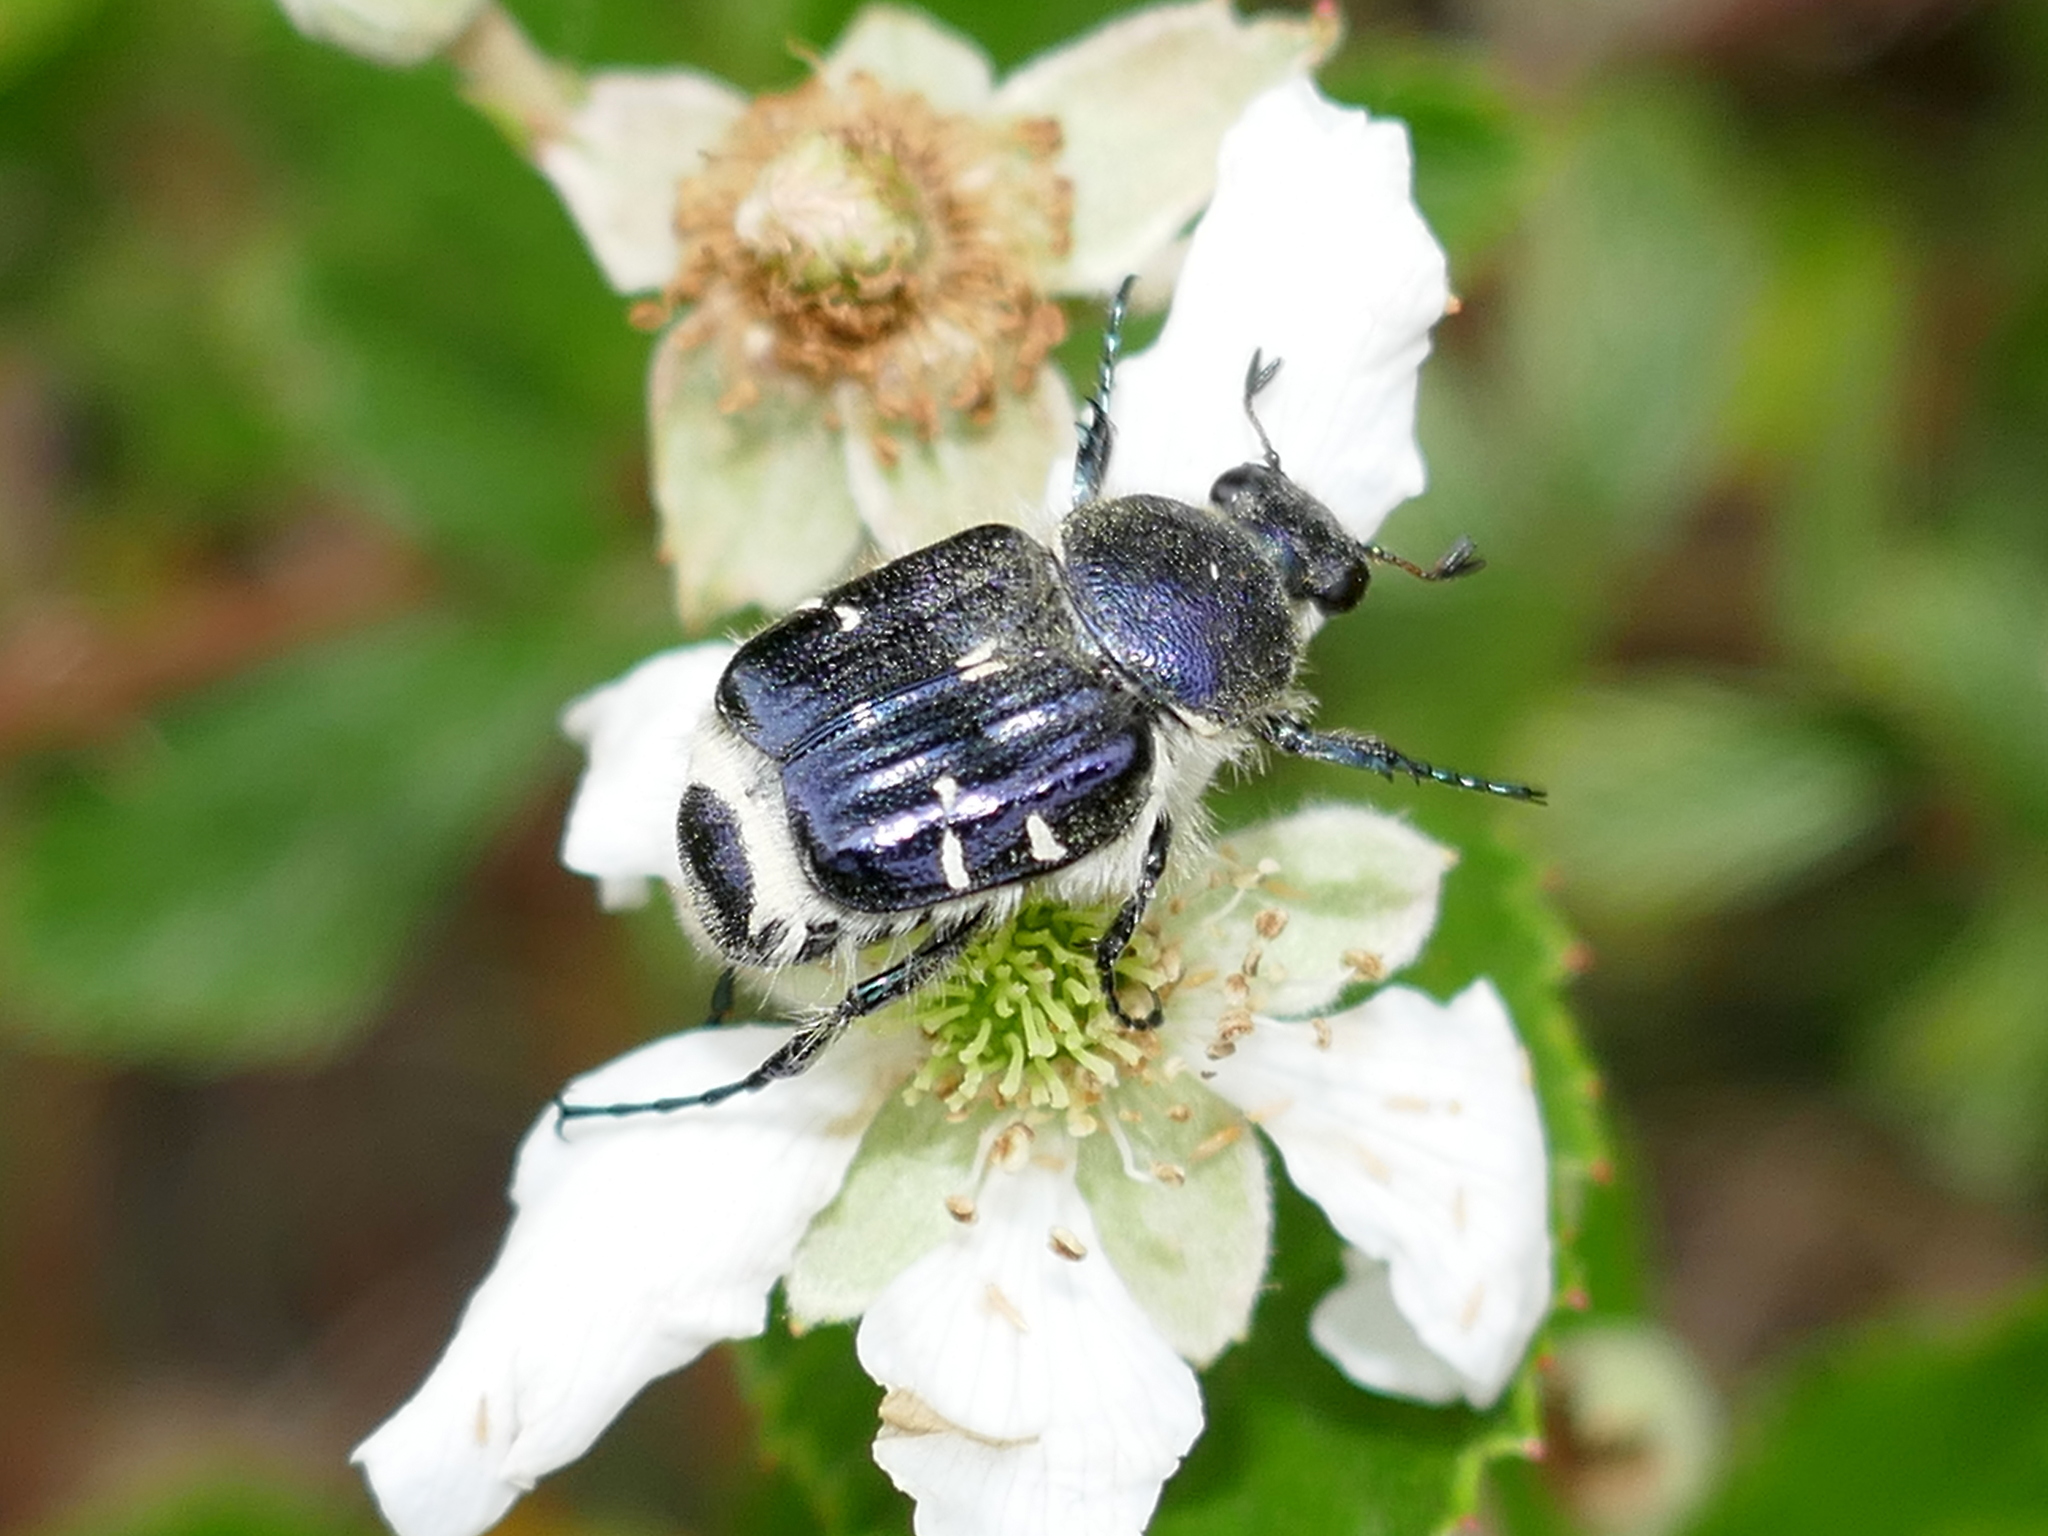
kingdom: Animalia
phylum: Arthropoda
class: Insecta
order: Coleoptera
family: Scarabaeidae
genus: Trichiotinus
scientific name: Trichiotinus lunulatus
